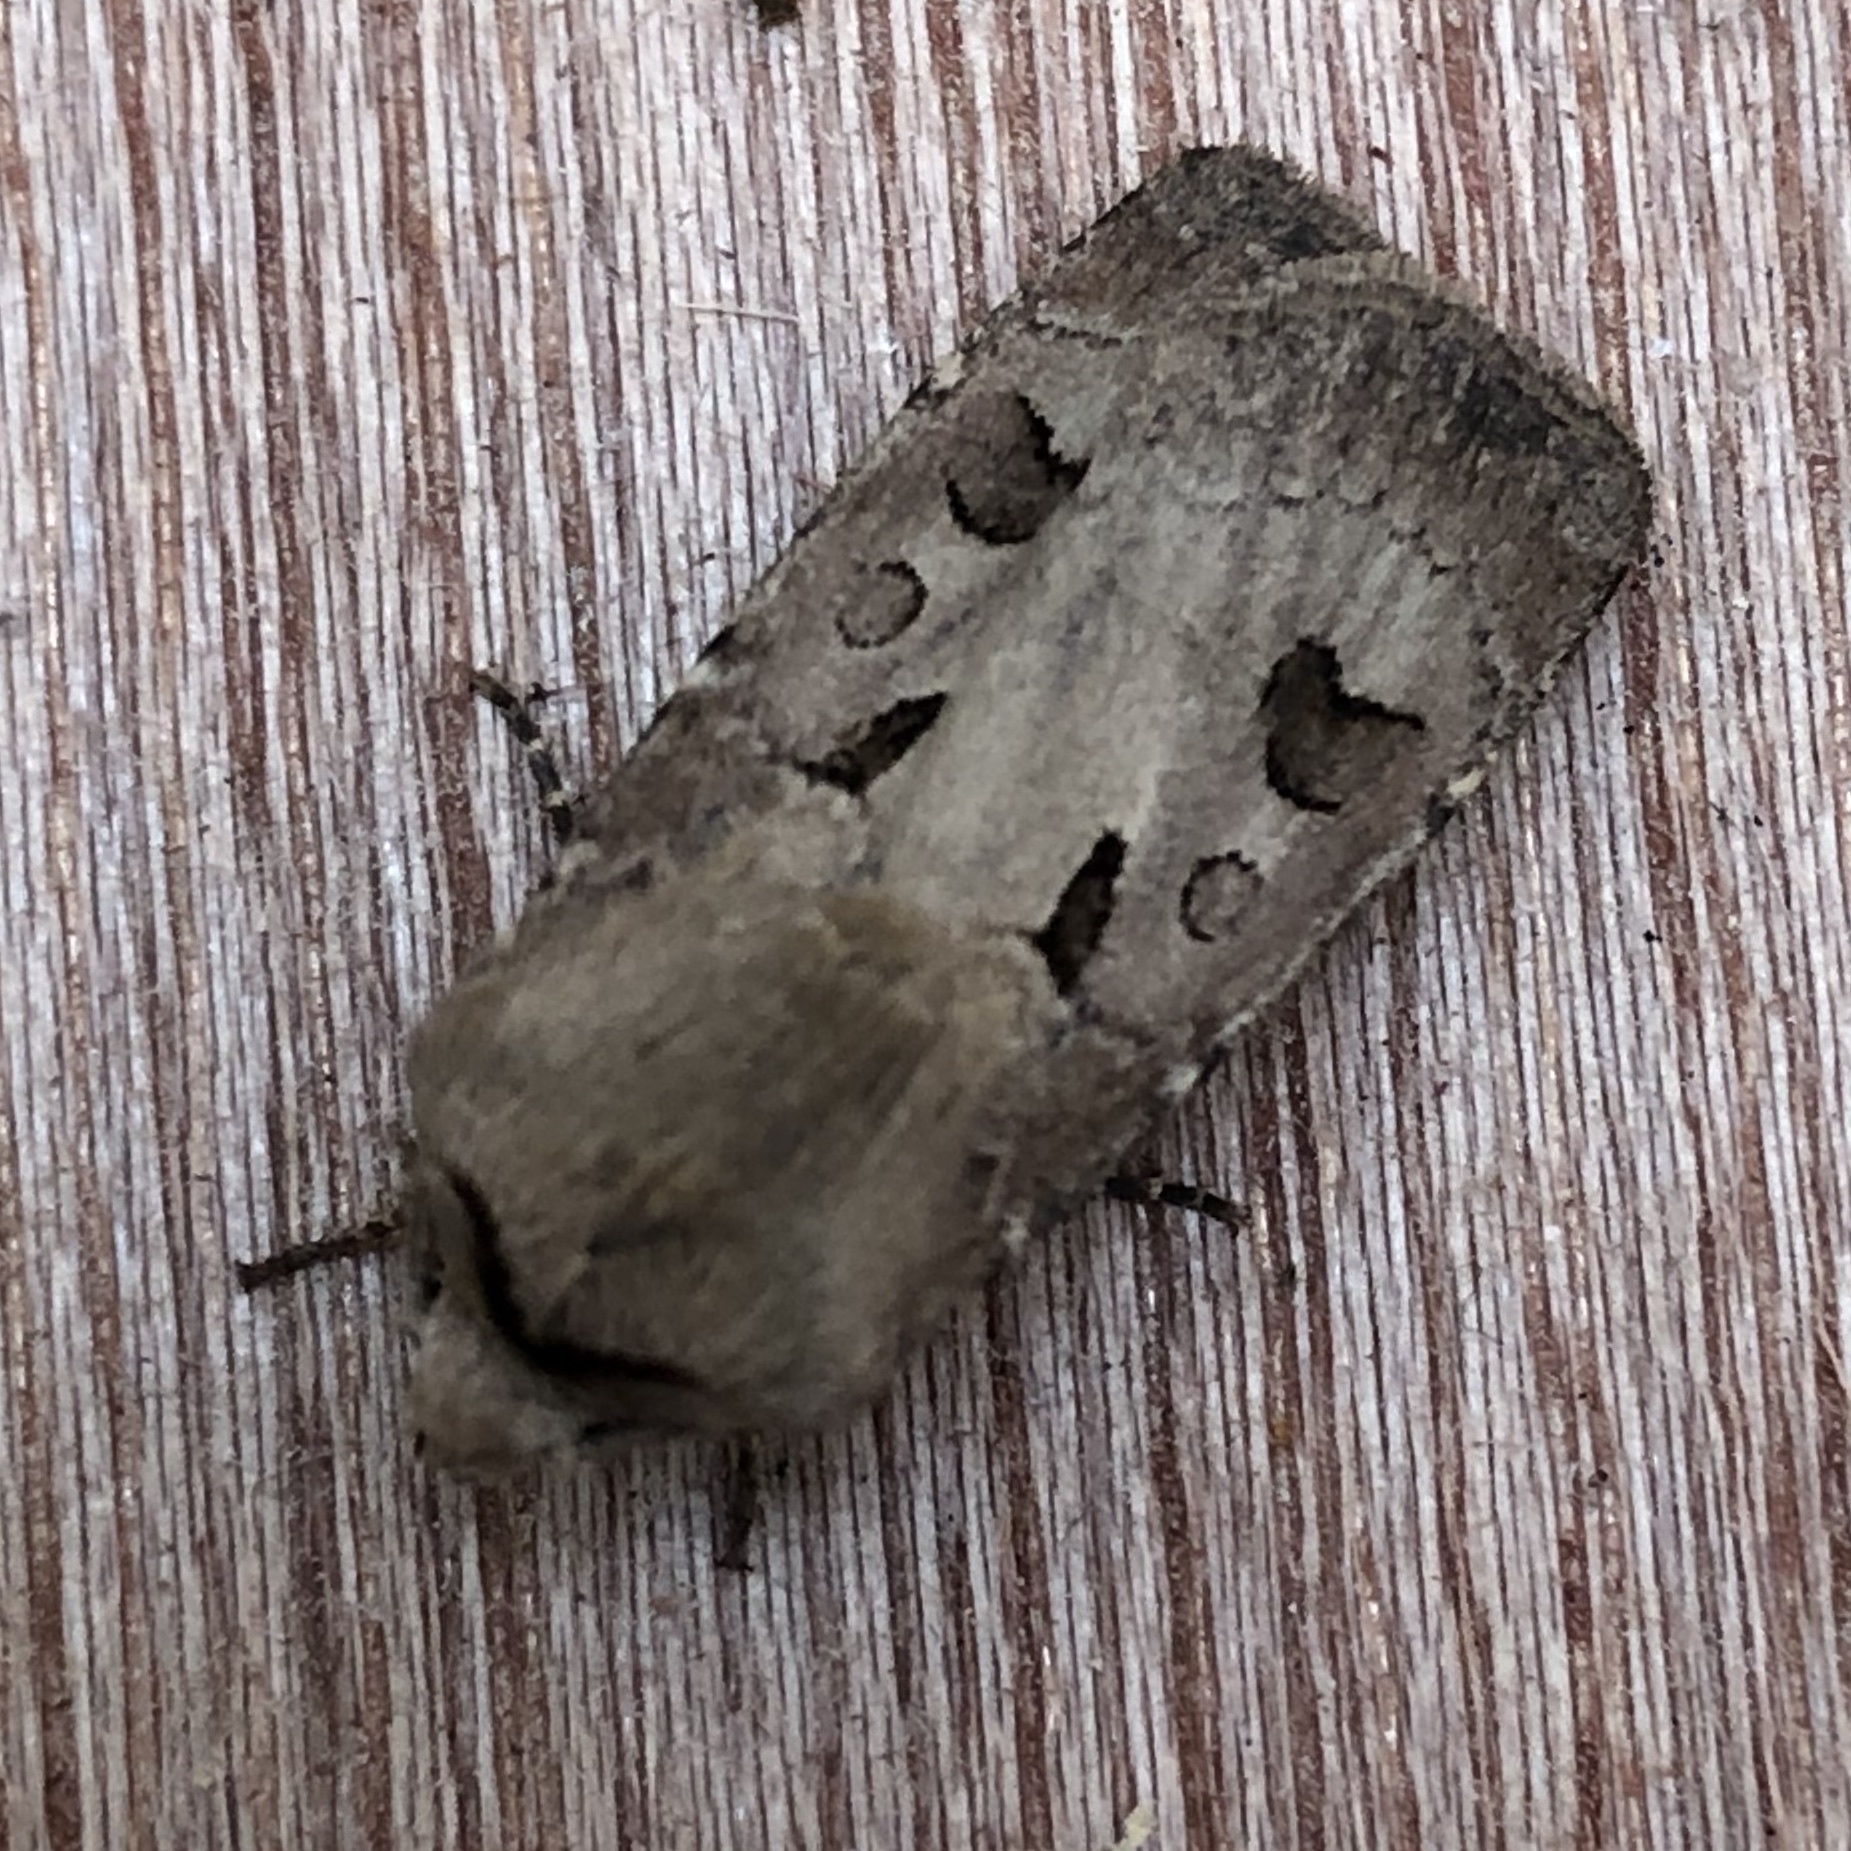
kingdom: Animalia
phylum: Arthropoda
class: Insecta
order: Lepidoptera
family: Noctuidae
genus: Agrotis
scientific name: Agrotis exclamationis
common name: Heart and dart
